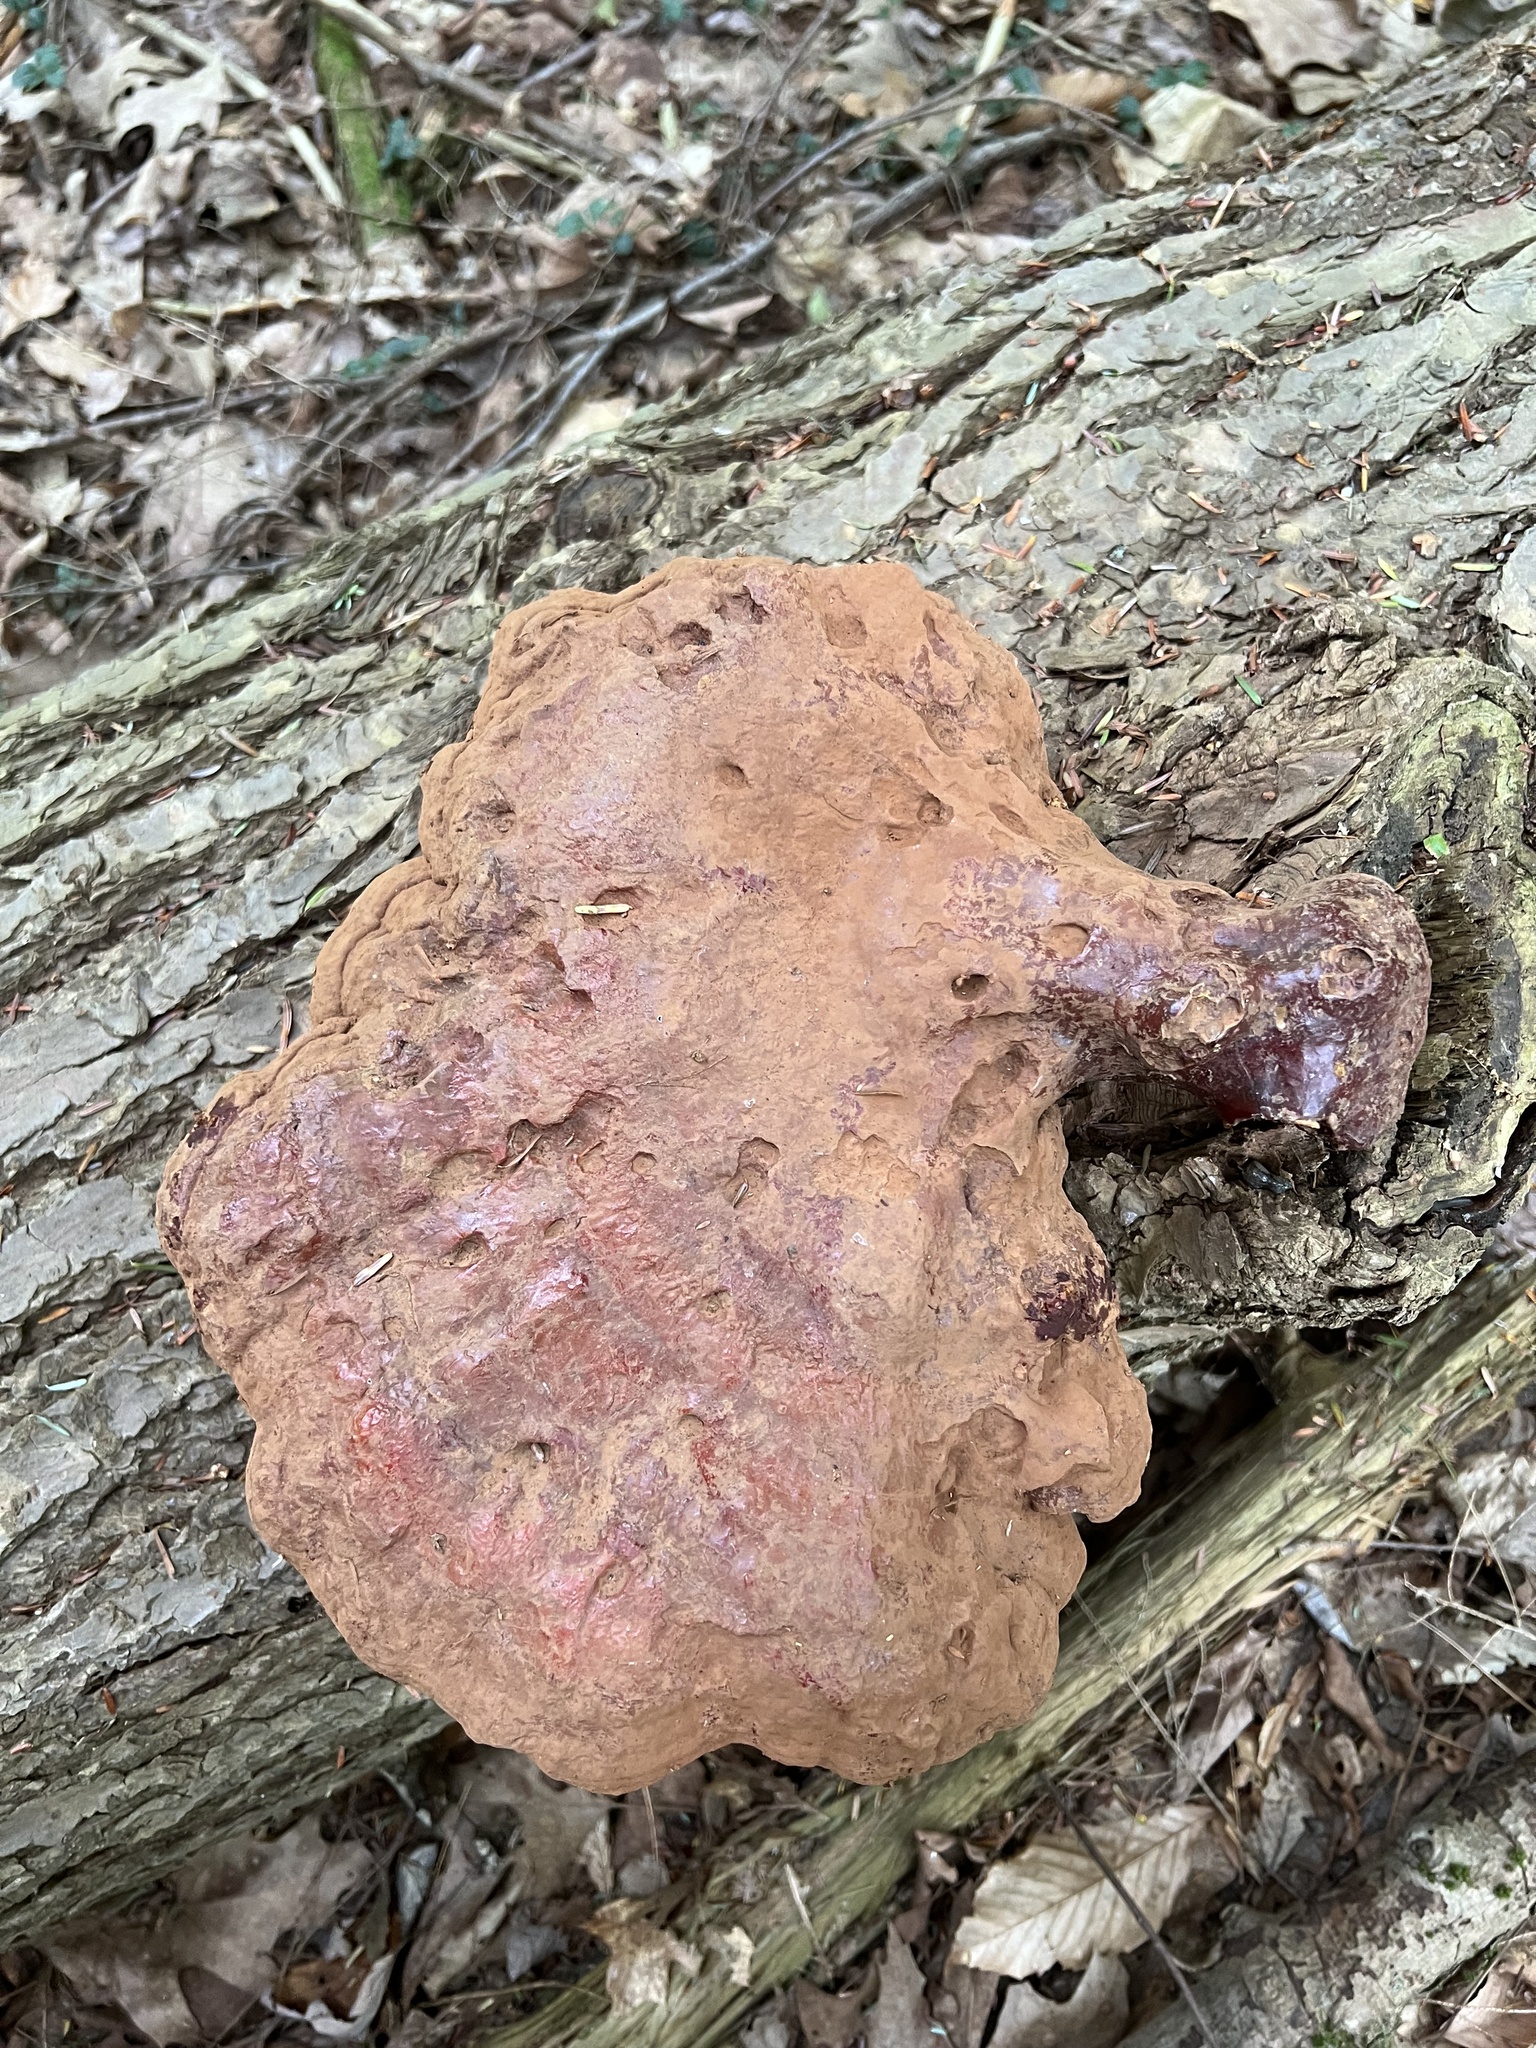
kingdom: Fungi
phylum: Basidiomycota
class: Agaricomycetes
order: Polyporales
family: Polyporaceae
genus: Ganoderma
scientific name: Ganoderma tsugae
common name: Hemlock varnish shelf
